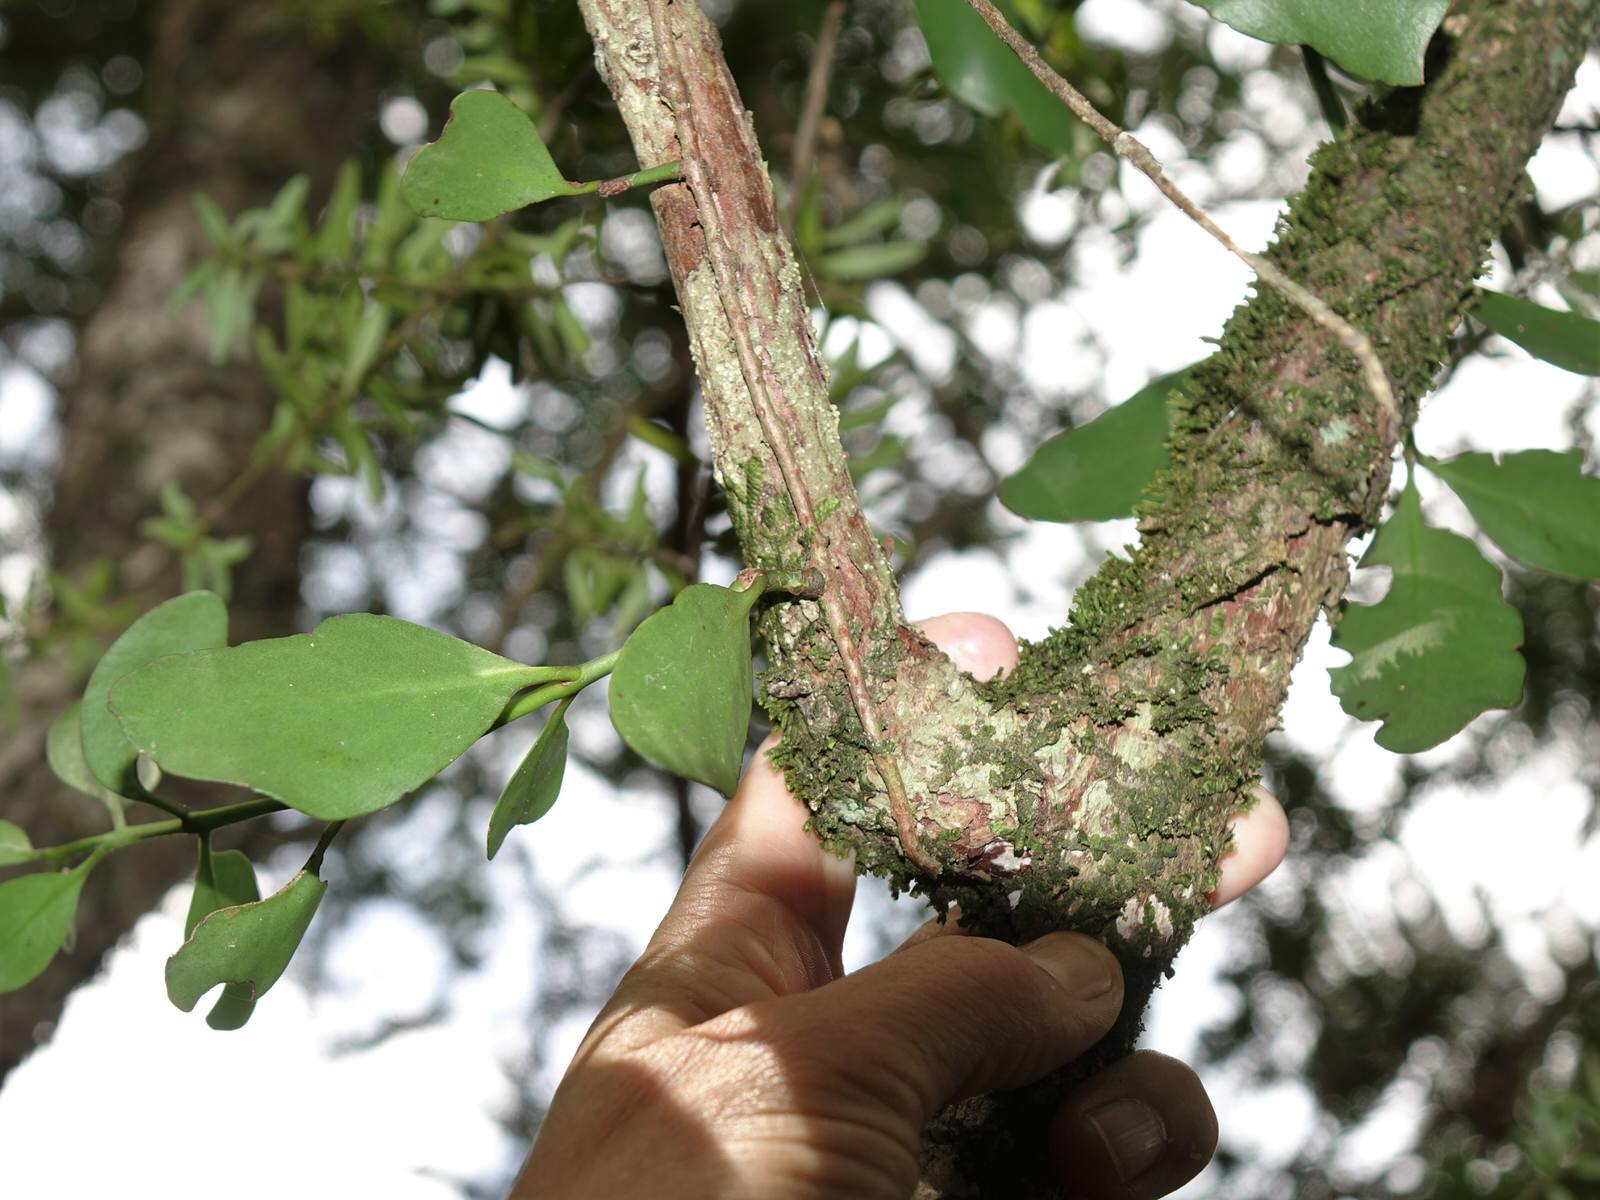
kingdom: Plantae
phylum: Tracheophyta
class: Magnoliopsida
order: Santalales
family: Loranthaceae
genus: Ileostylus
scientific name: Ileostylus micranthus
